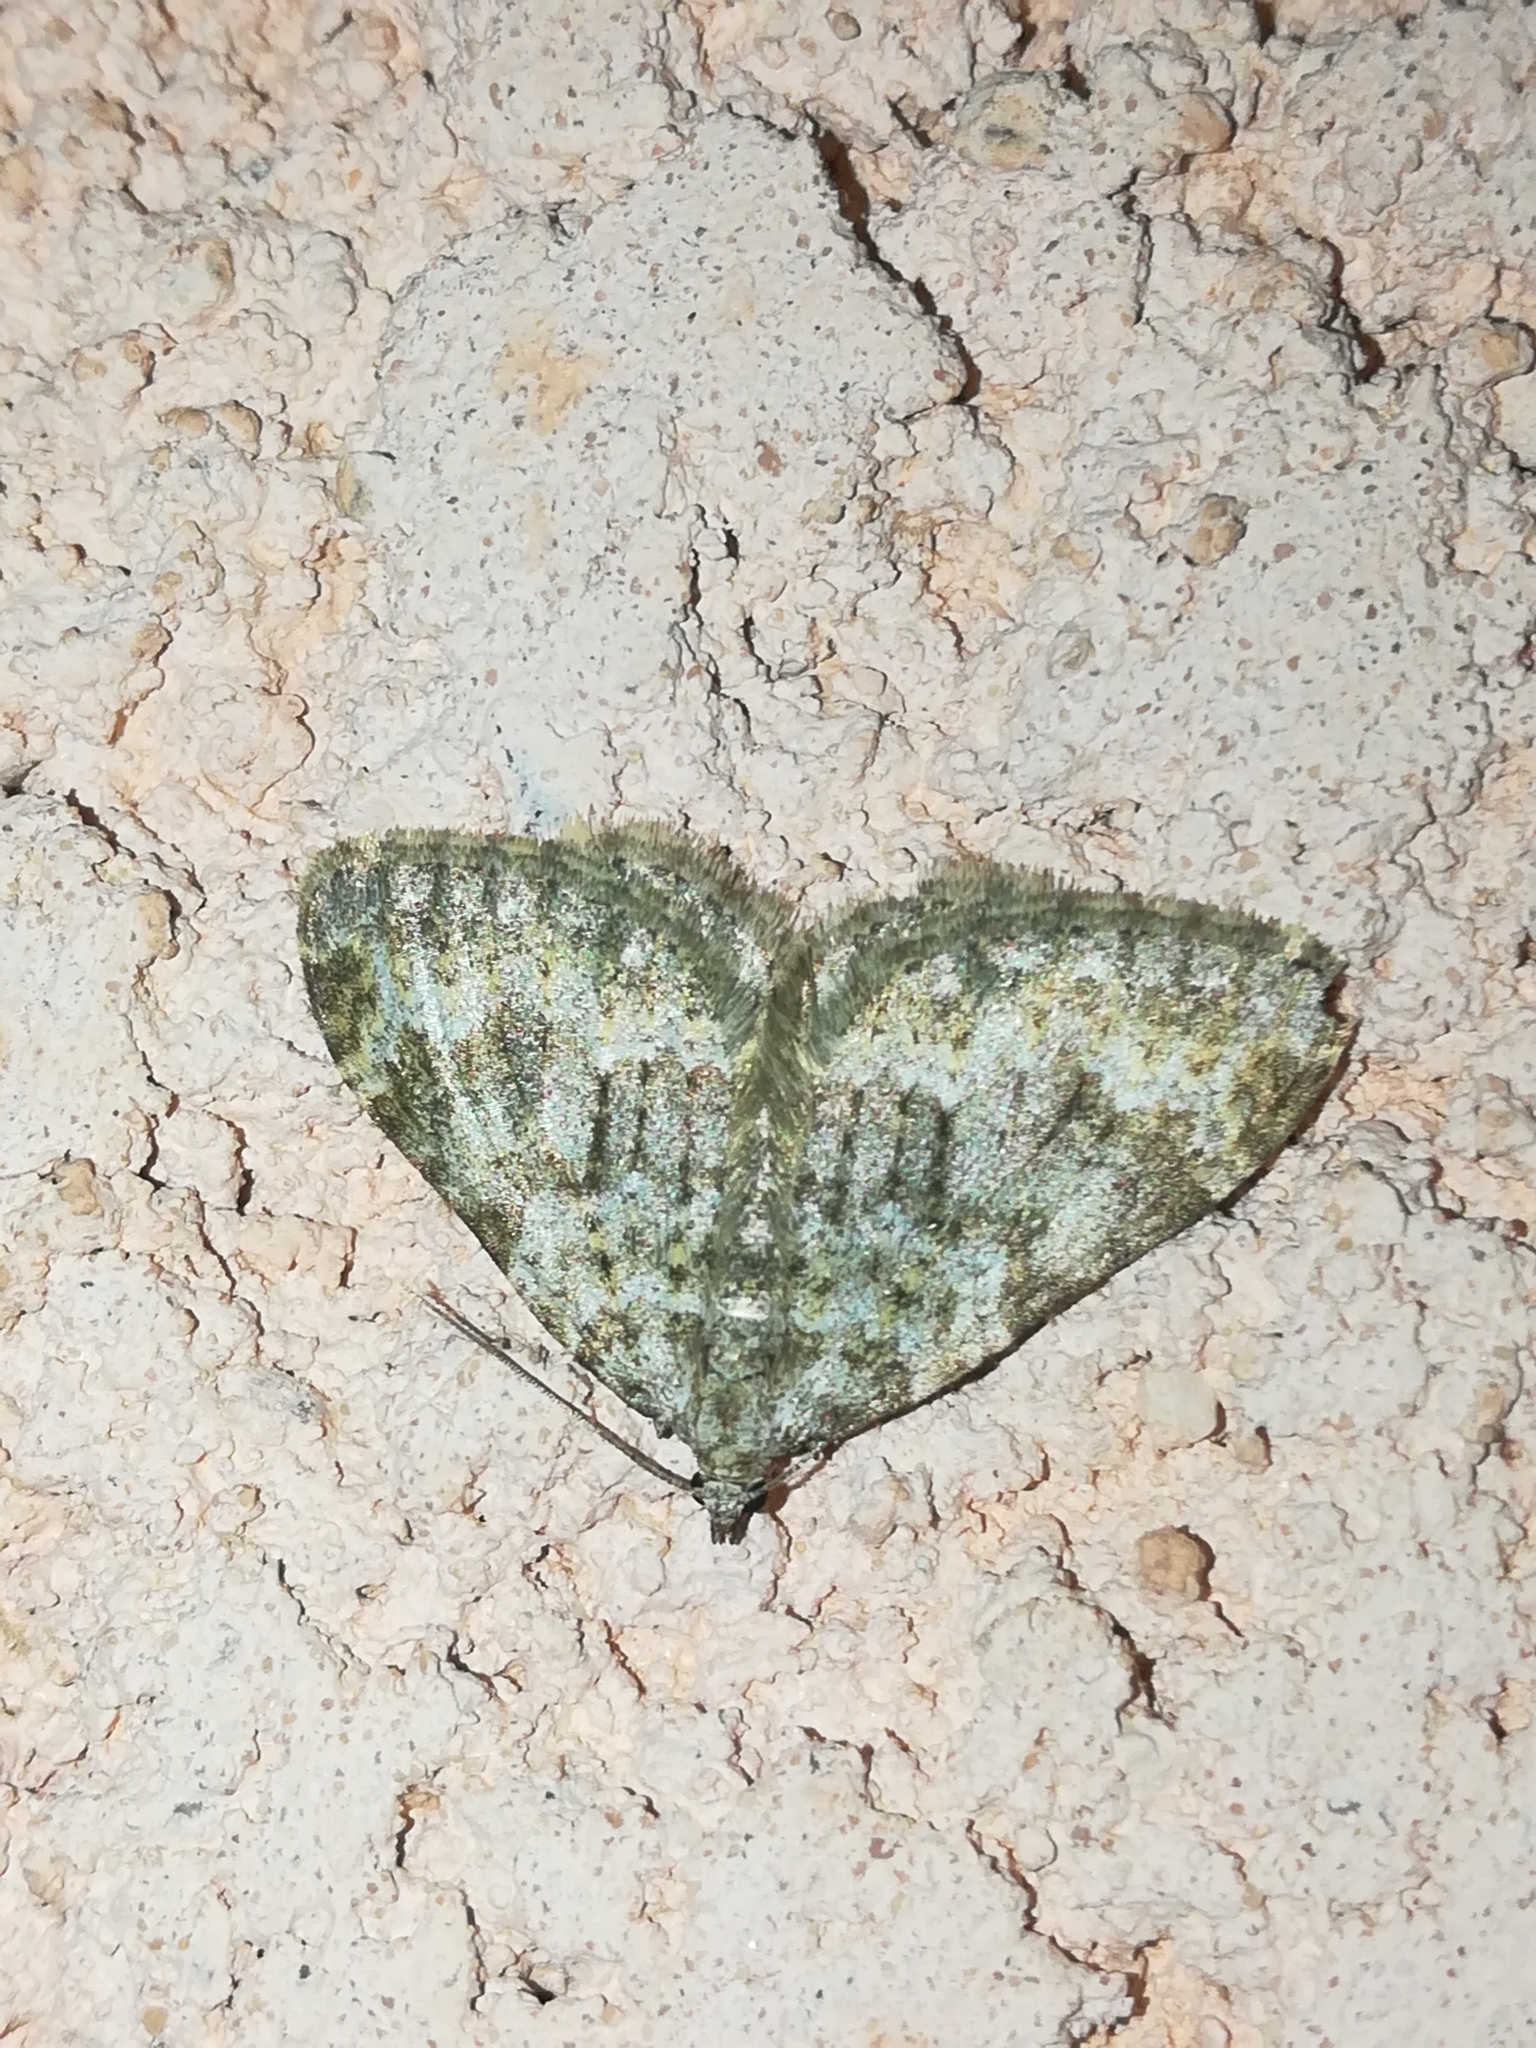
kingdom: Animalia
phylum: Arthropoda
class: Insecta
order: Lepidoptera
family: Geometridae
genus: Nebula
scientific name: Nebula salicata
